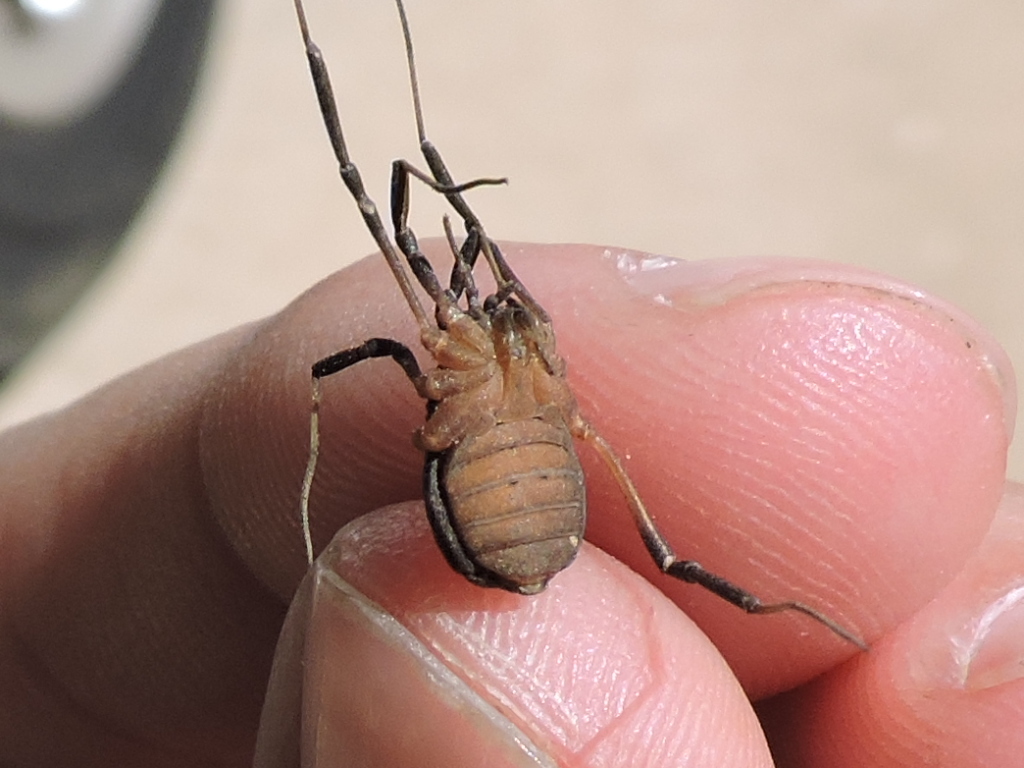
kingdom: Animalia
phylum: Arthropoda
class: Arachnida
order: Opiliones
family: Sclerosomatidae
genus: Eumesosoma
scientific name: Eumesosoma roeweri
